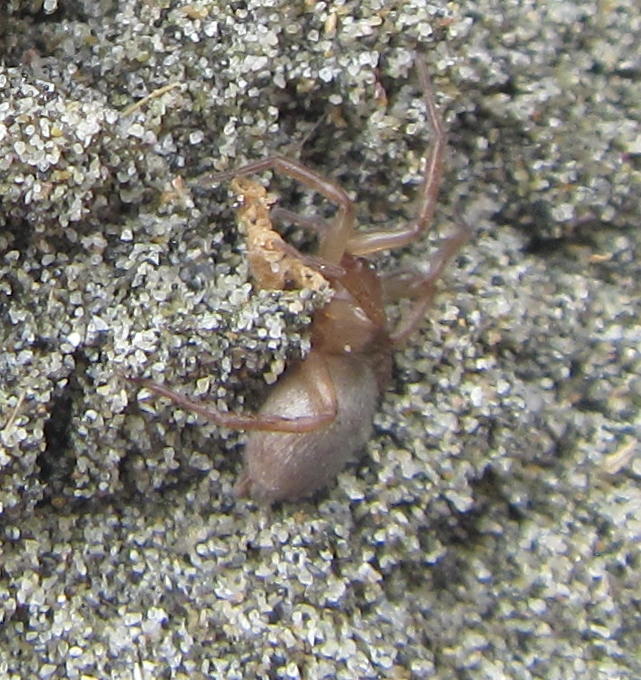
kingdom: Animalia
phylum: Arthropoda
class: Arachnida
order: Araneae
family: Gnaphosidae
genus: Anzacia
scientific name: Anzacia gemmea
